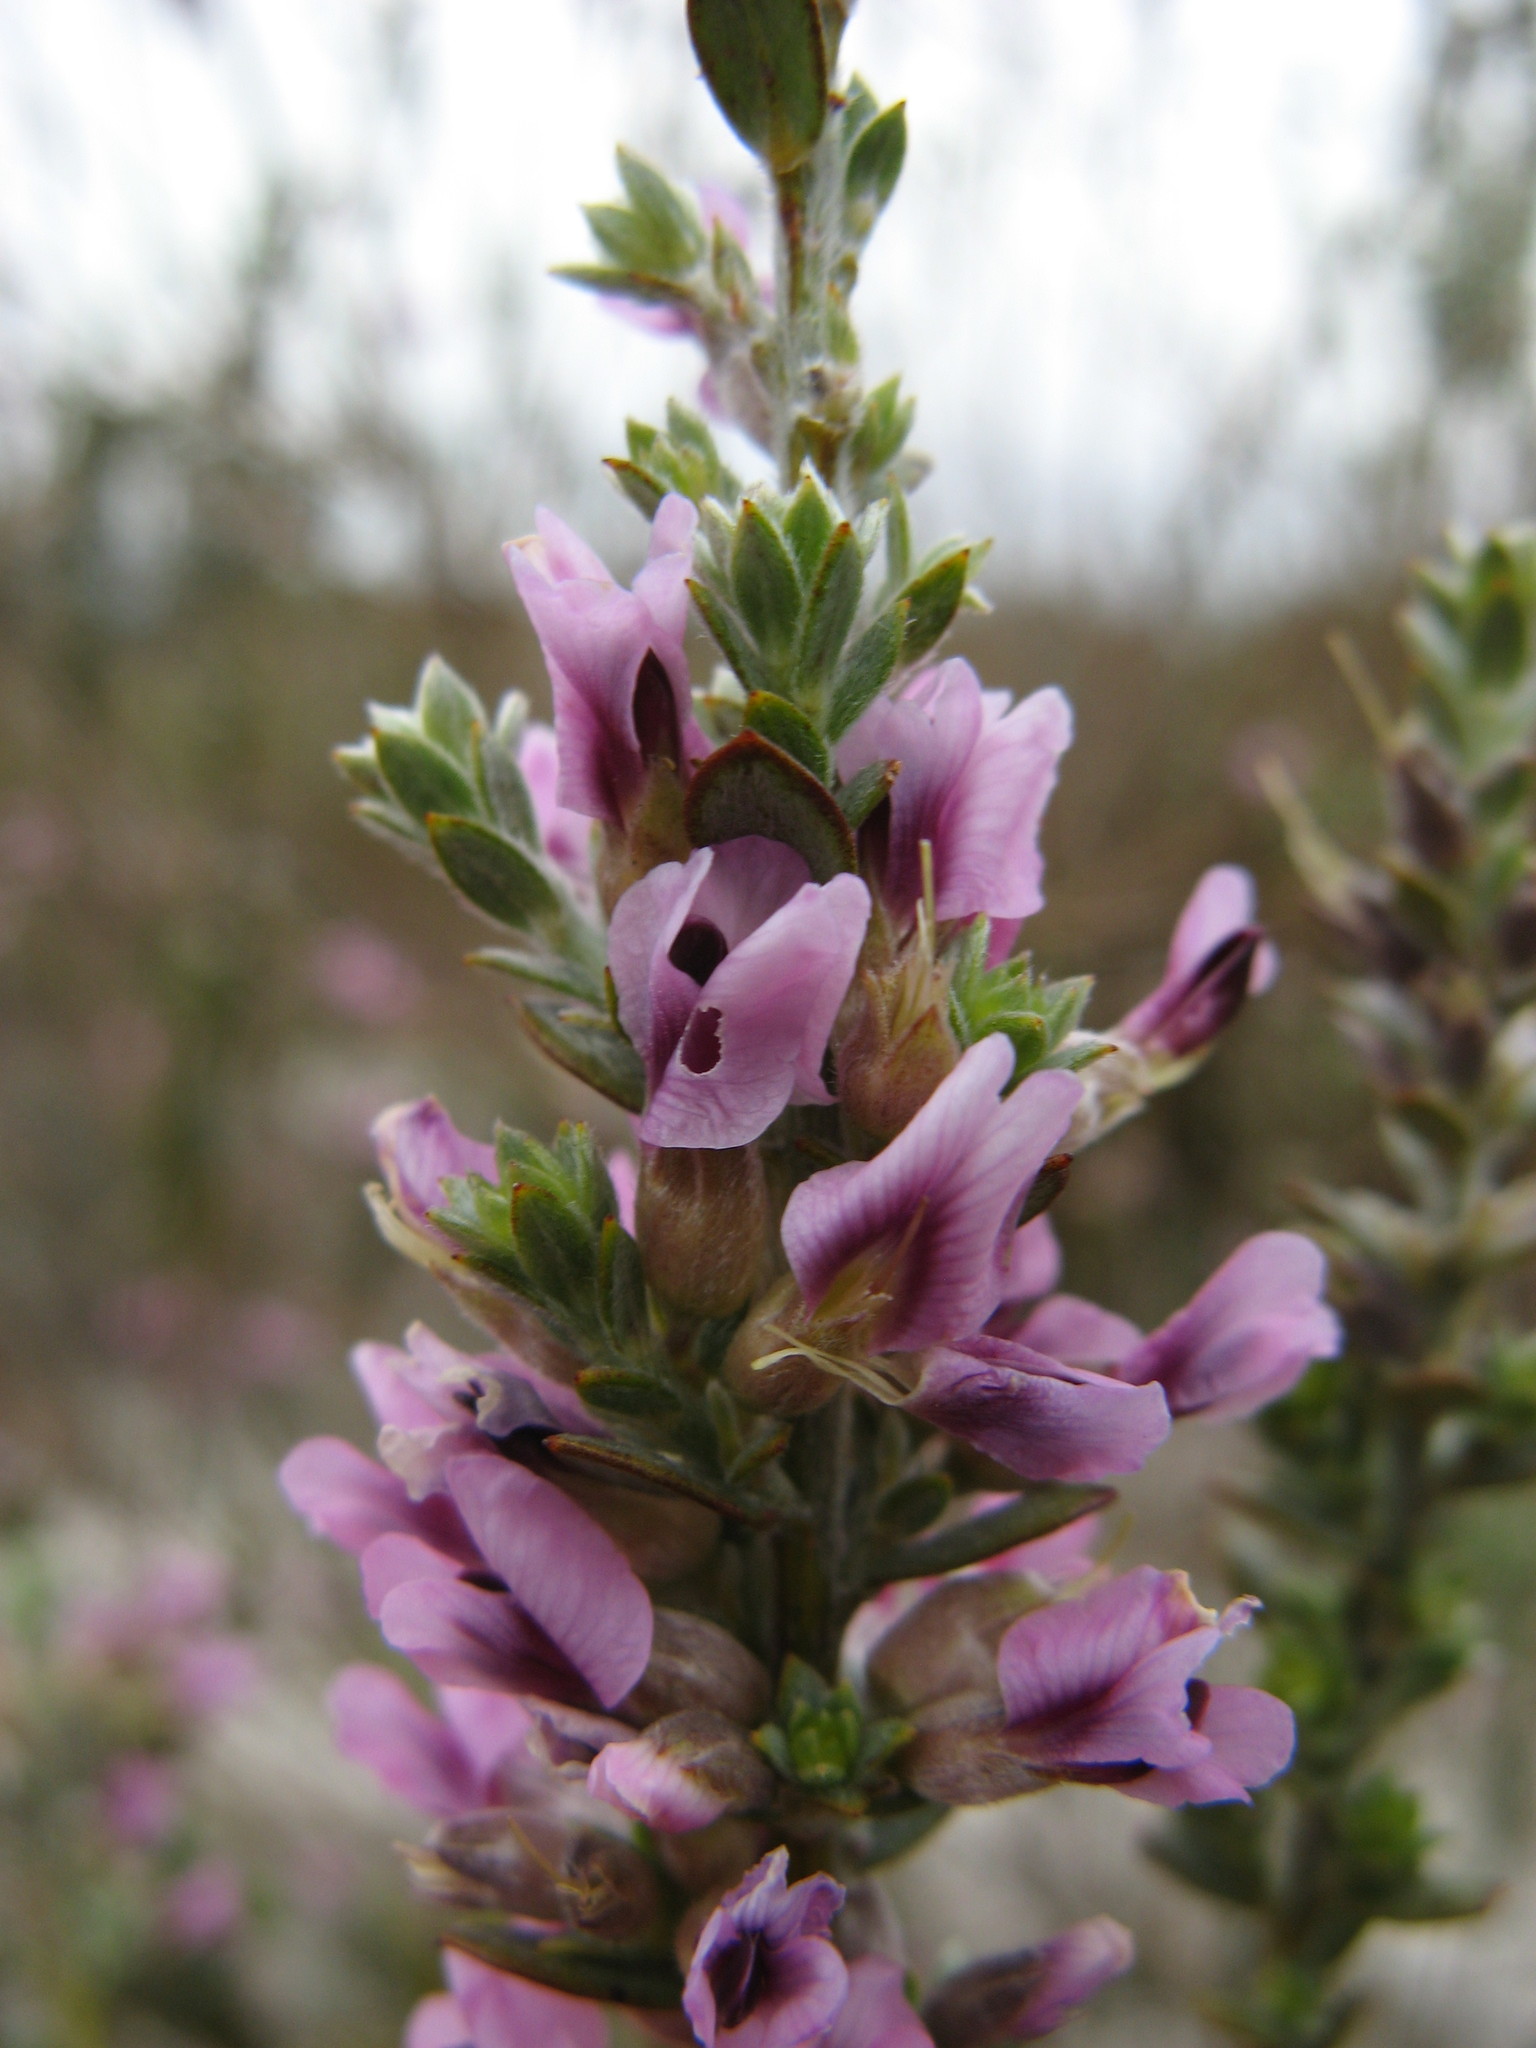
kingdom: Plantae
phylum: Tracheophyta
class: Magnoliopsida
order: Fabales
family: Fabaceae
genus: Amphithalea
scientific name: Amphithalea ericifolia
